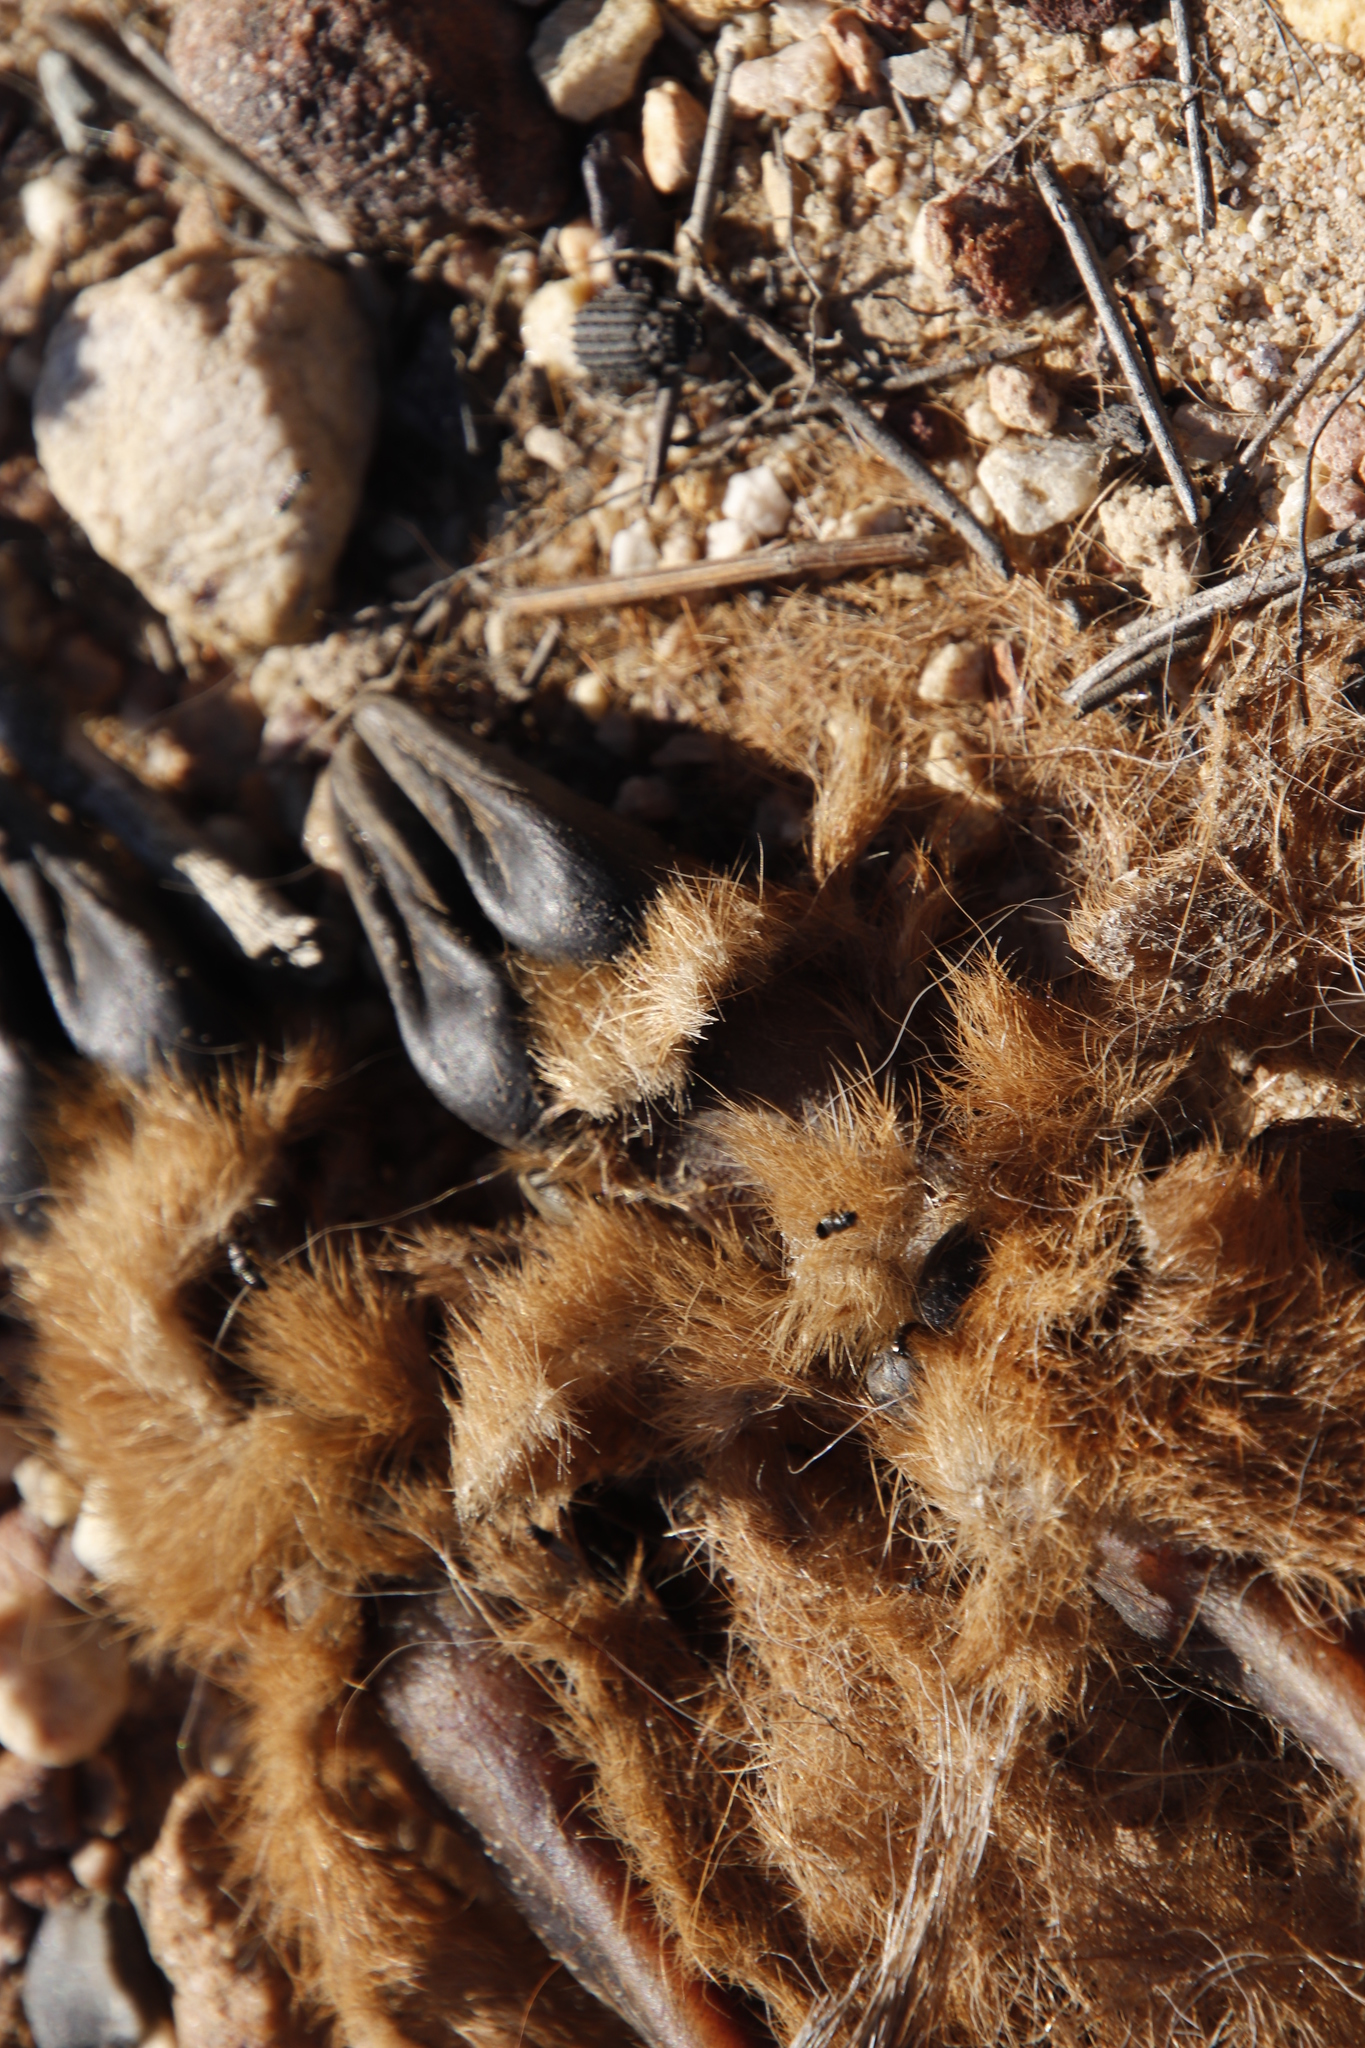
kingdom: Animalia
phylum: Chordata
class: Mammalia
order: Artiodactyla
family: Bovidae
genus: Raphicerus
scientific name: Raphicerus melanotis
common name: Cape grysbok
